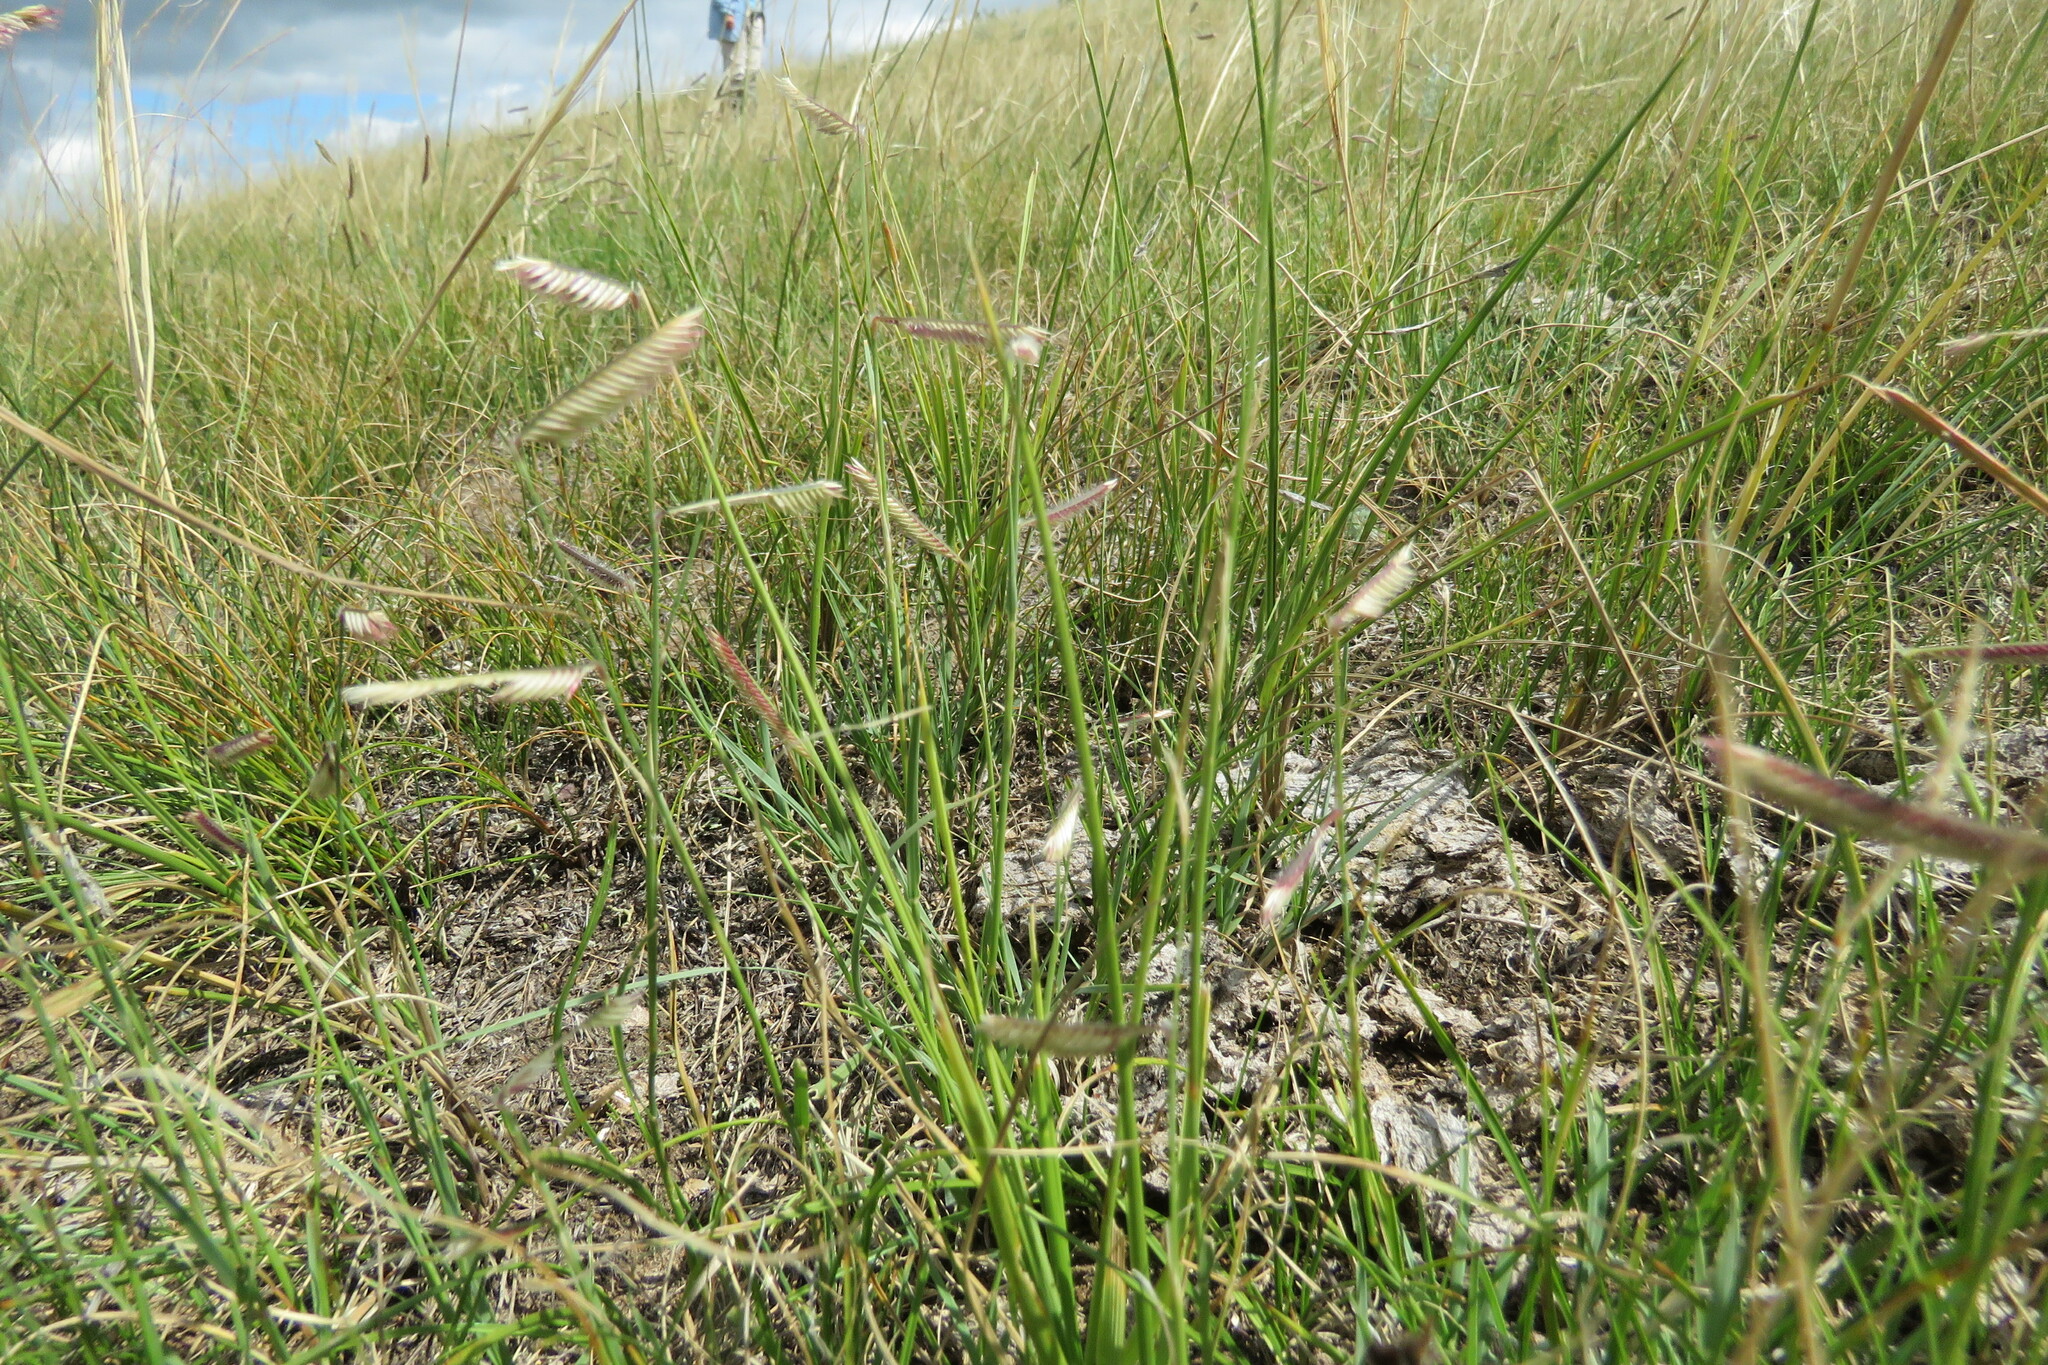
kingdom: Plantae
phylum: Tracheophyta
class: Liliopsida
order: Poales
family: Poaceae
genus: Bouteloua
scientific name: Bouteloua gracilis
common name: Blue grama
